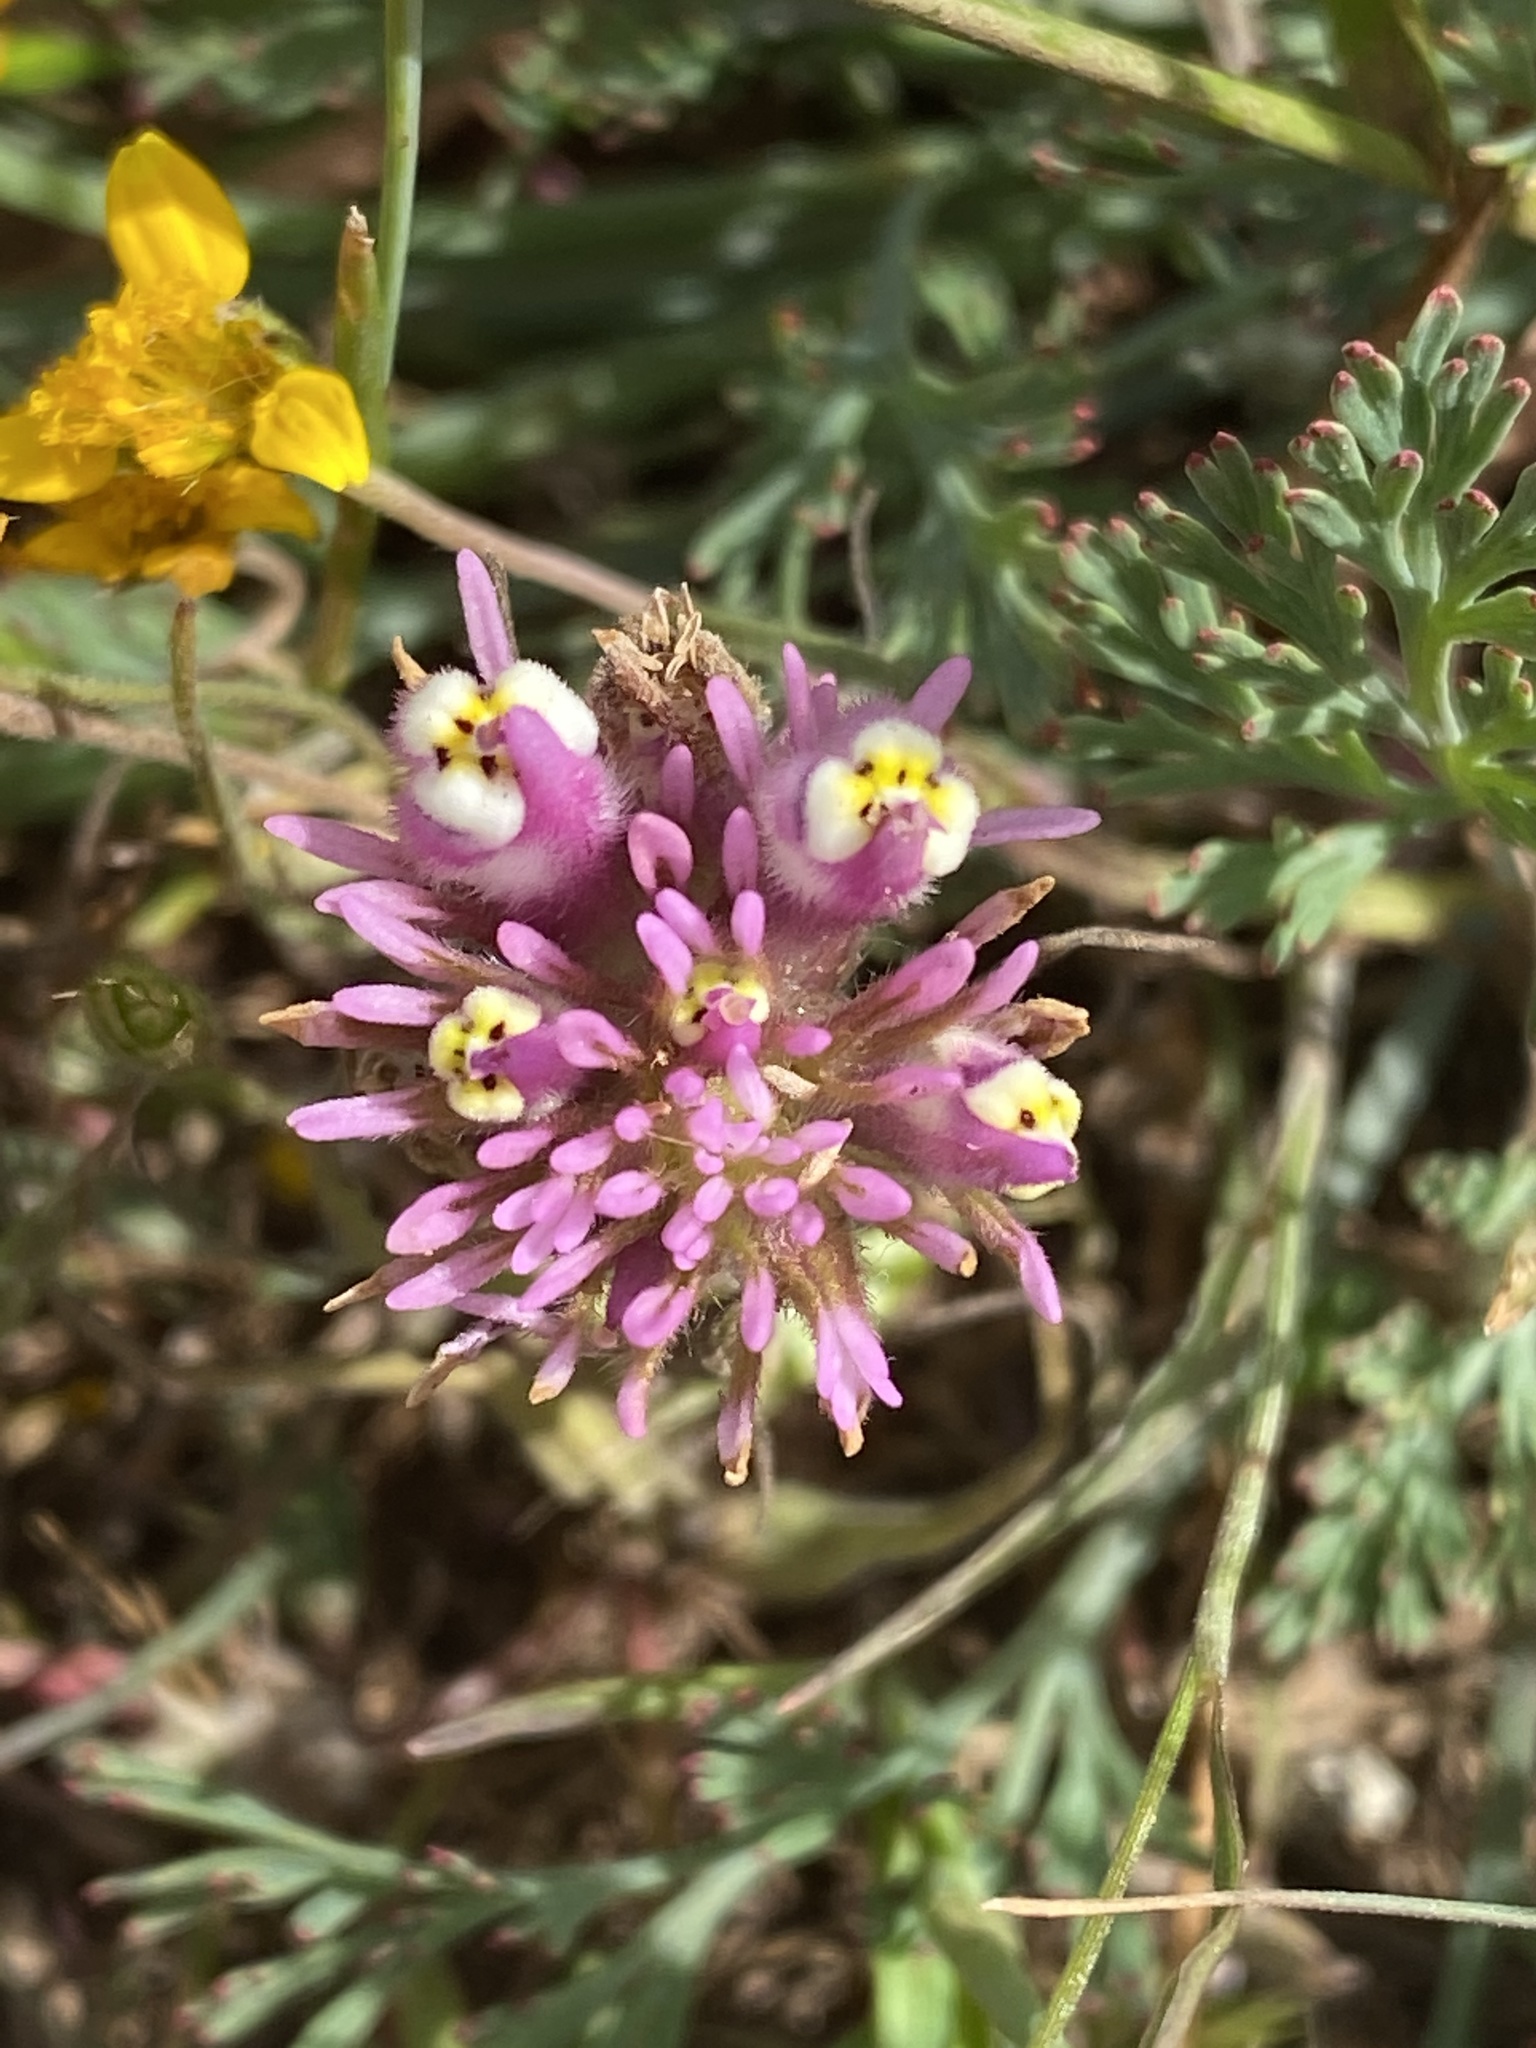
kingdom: Plantae
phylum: Tracheophyta
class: Magnoliopsida
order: Lamiales
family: Orobanchaceae
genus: Castilleja
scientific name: Castilleja densiflora
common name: Dense-flower indian paintbrush
